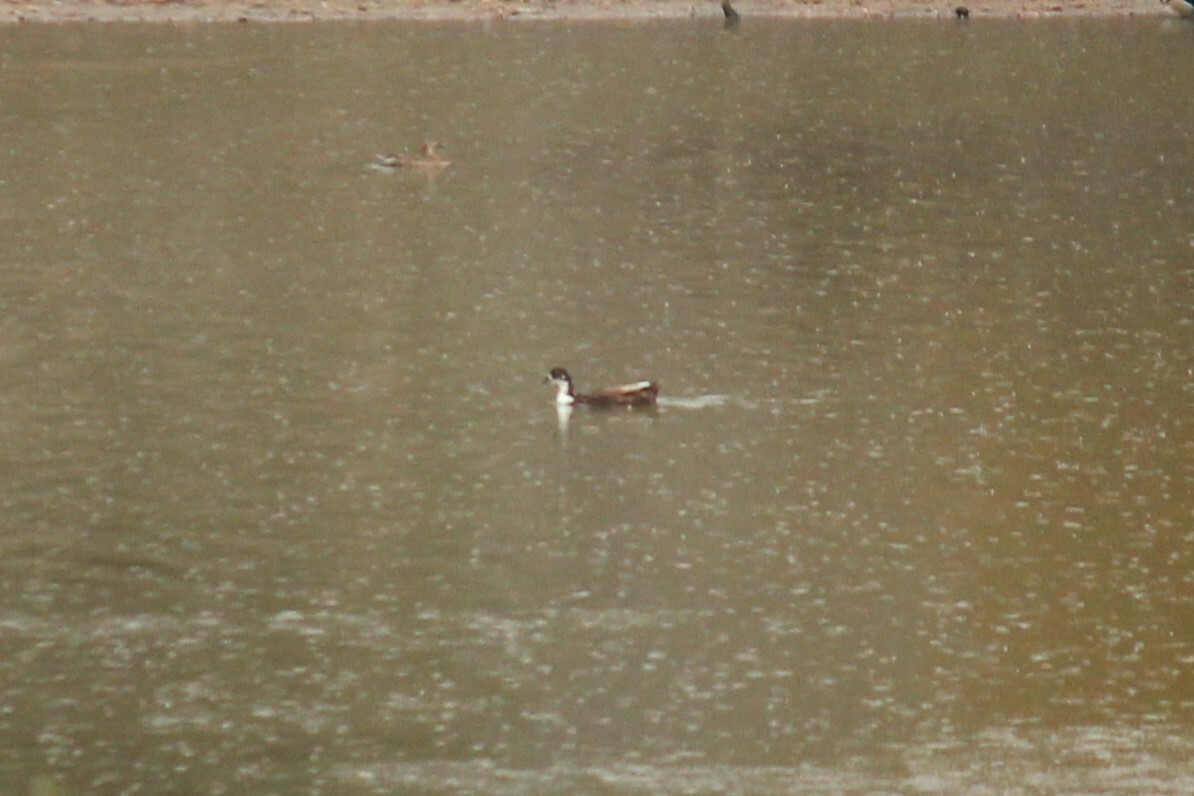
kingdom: Animalia
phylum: Chordata
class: Aves
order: Anseriformes
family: Anatidae
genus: Anas
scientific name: Anas platyrhynchos
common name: Mallard
